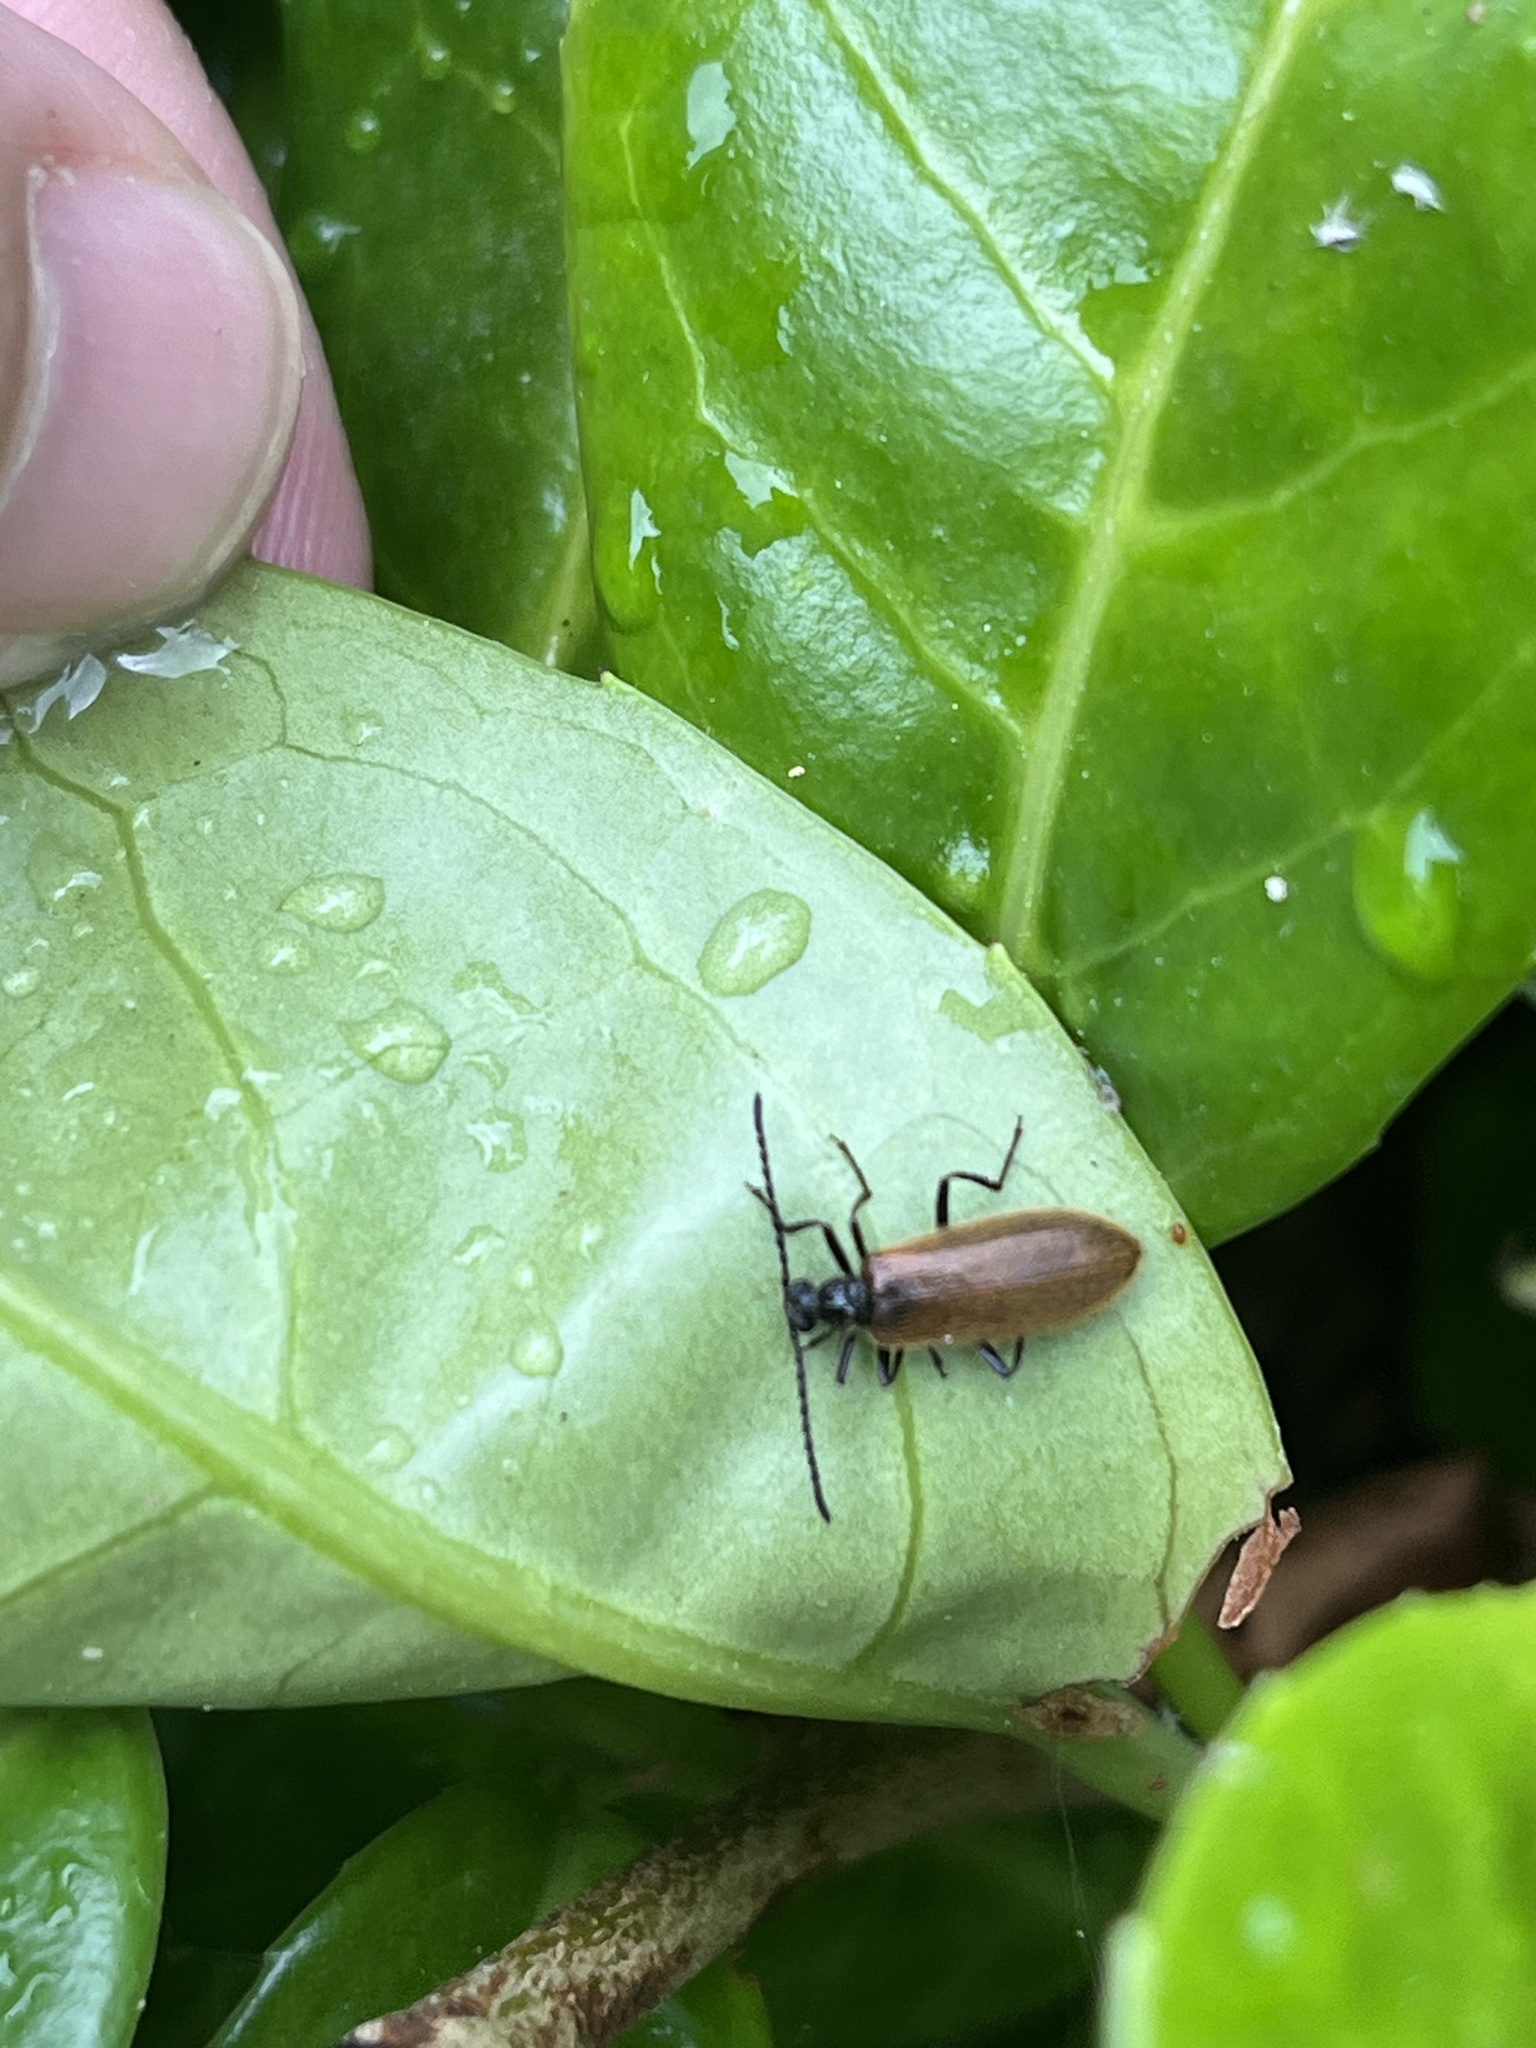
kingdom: Animalia
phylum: Arthropoda
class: Insecta
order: Coleoptera
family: Tenebrionidae
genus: Lagria
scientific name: Lagria hirta
